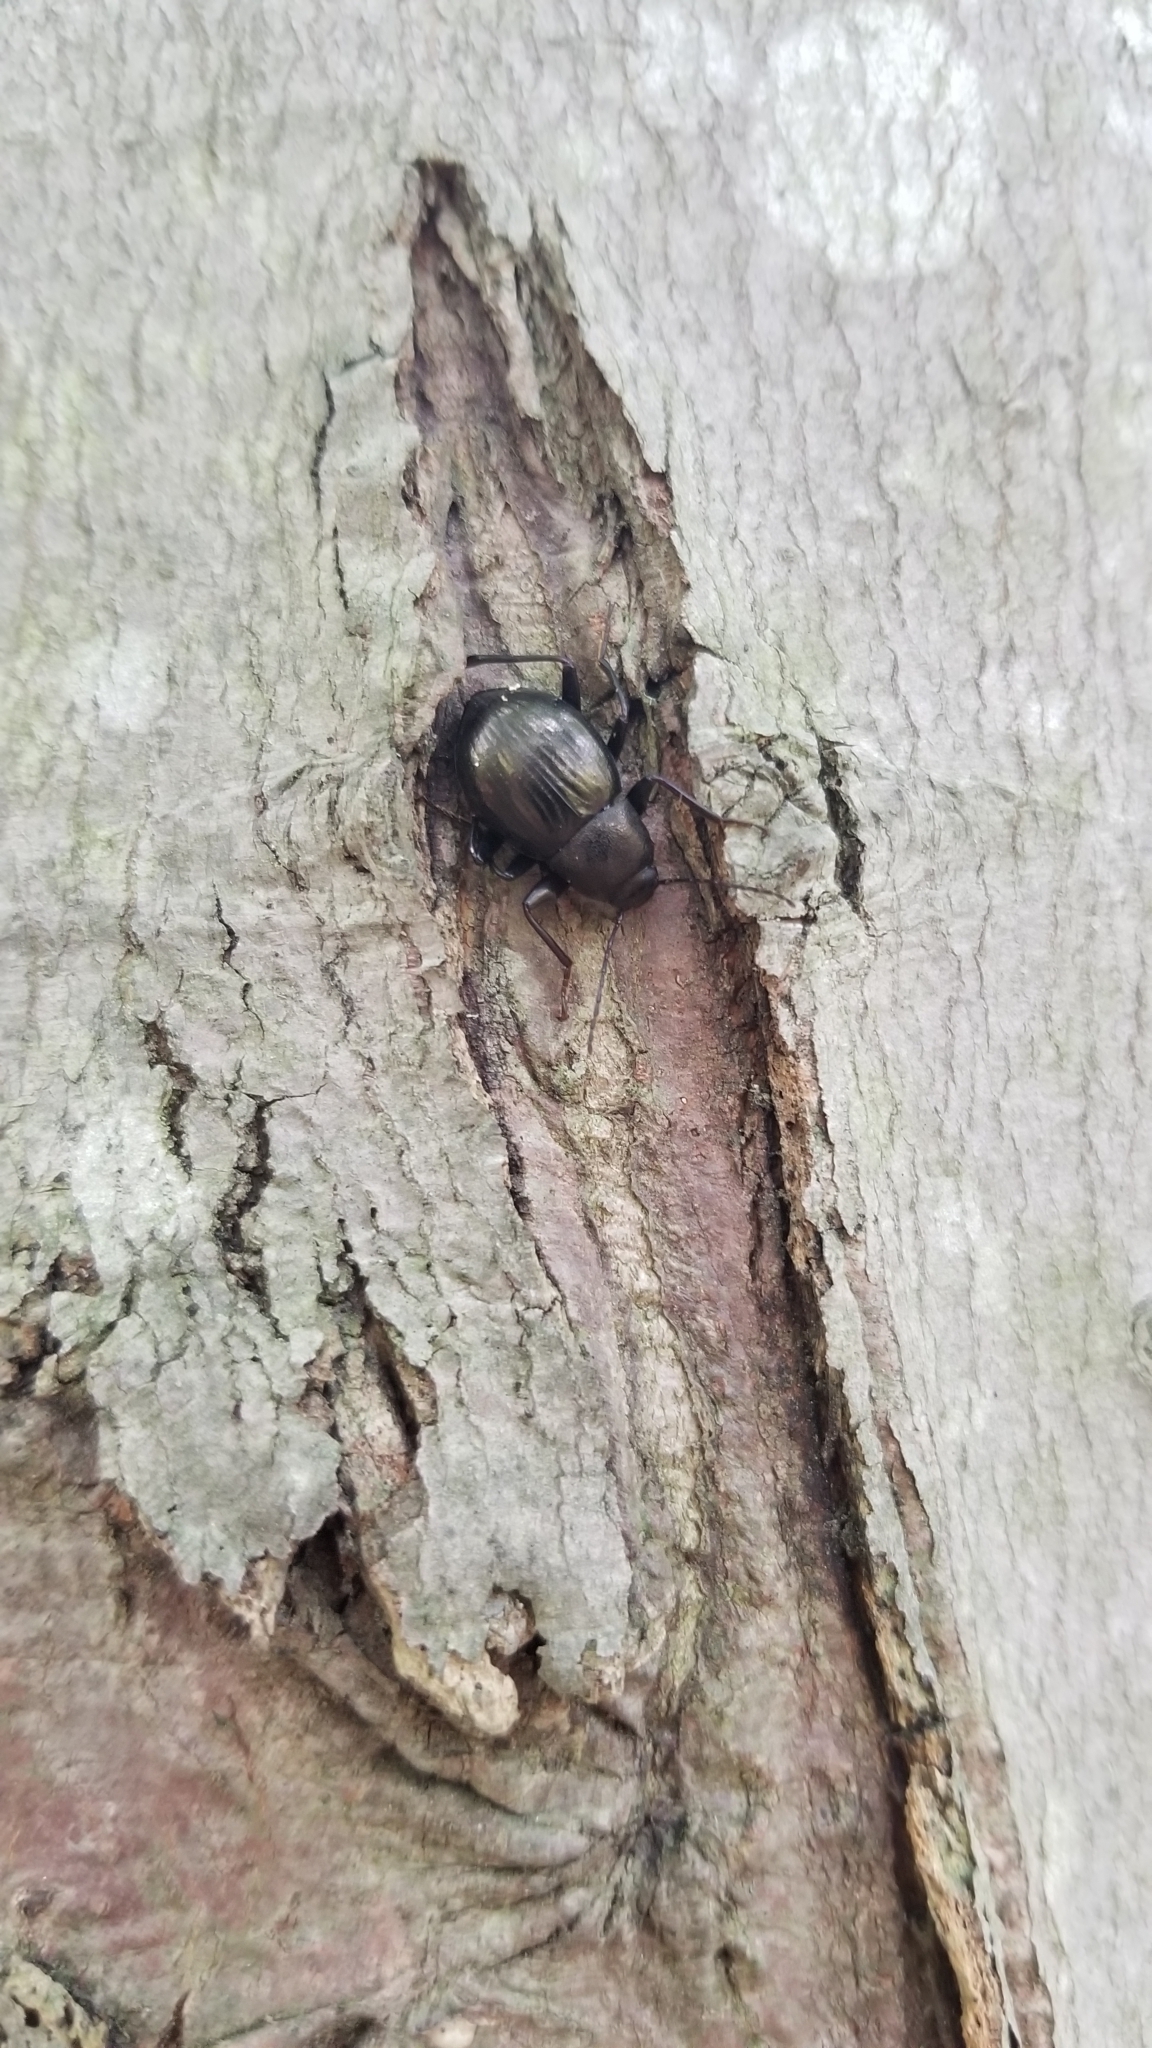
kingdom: Animalia
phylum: Arthropoda
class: Insecta
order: Coleoptera
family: Tenebrionidae
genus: Meracantha
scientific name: Meracantha contracta
